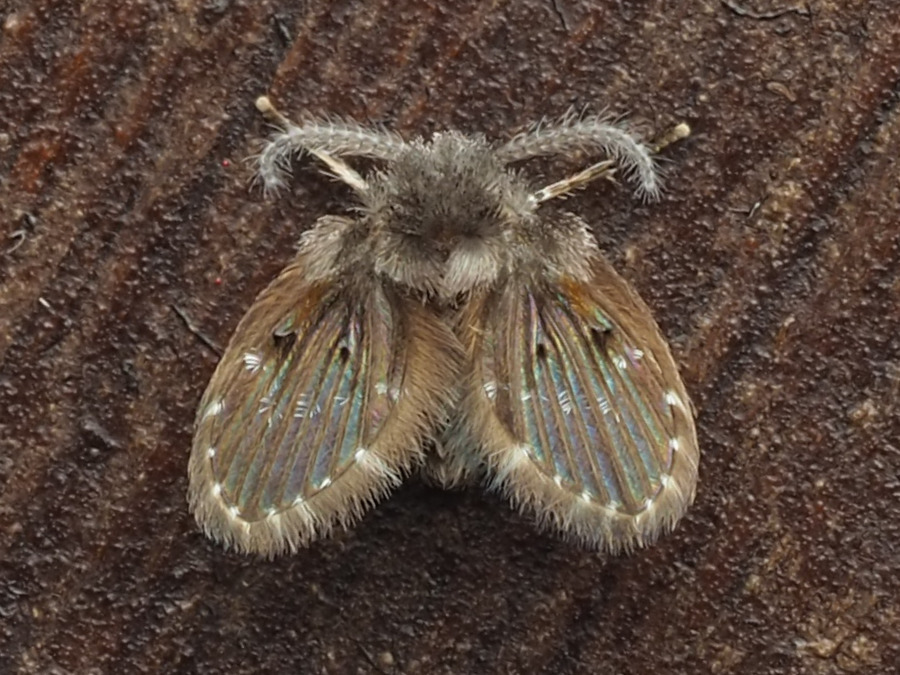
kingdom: Animalia
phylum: Arthropoda
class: Insecta
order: Diptera
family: Psychodidae
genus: Clogmia
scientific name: Clogmia albipunctatus
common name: White-spotted moth fly
